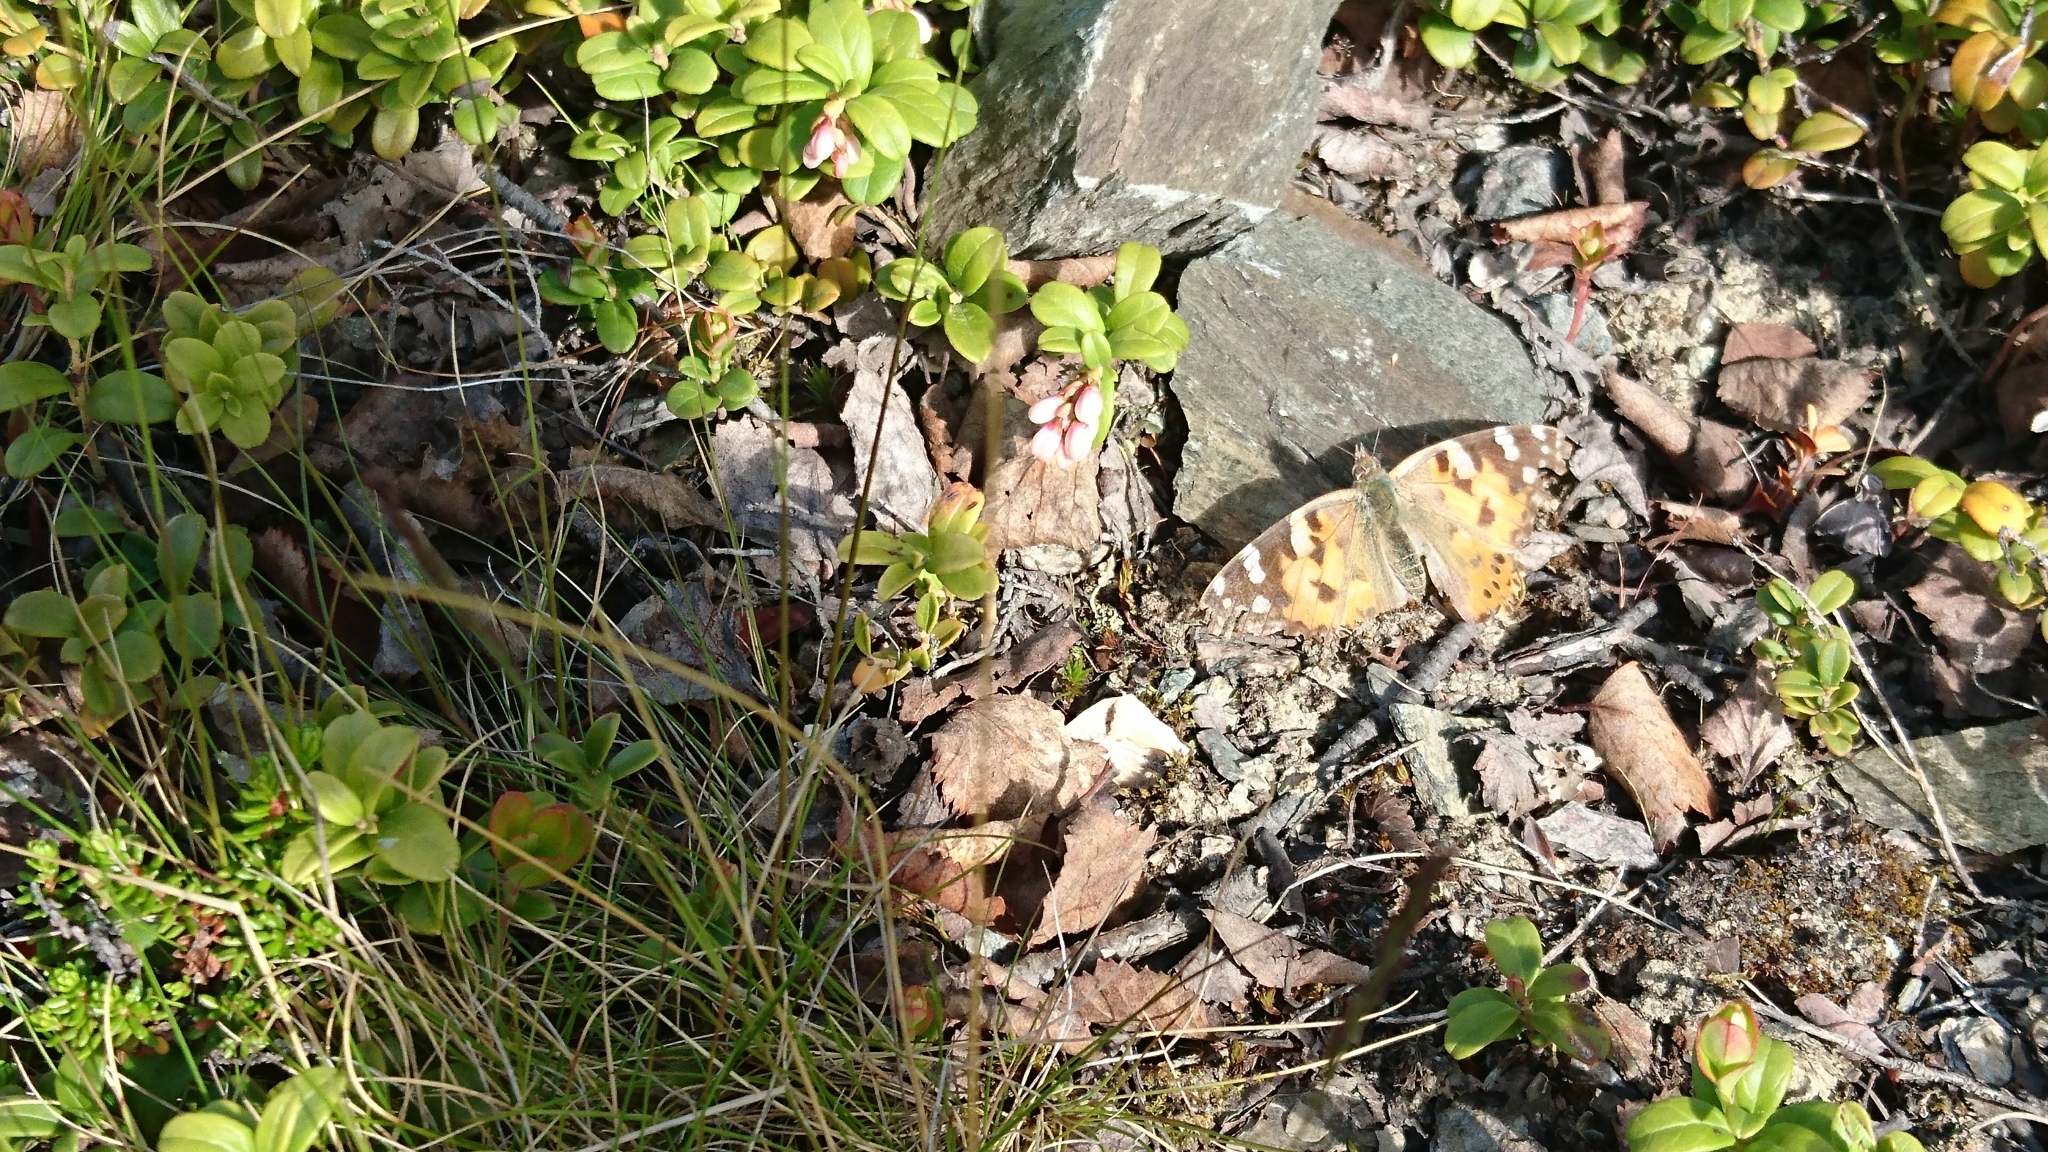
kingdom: Animalia
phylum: Arthropoda
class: Insecta
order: Lepidoptera
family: Nymphalidae
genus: Vanessa
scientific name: Vanessa cardui
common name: Painted lady
